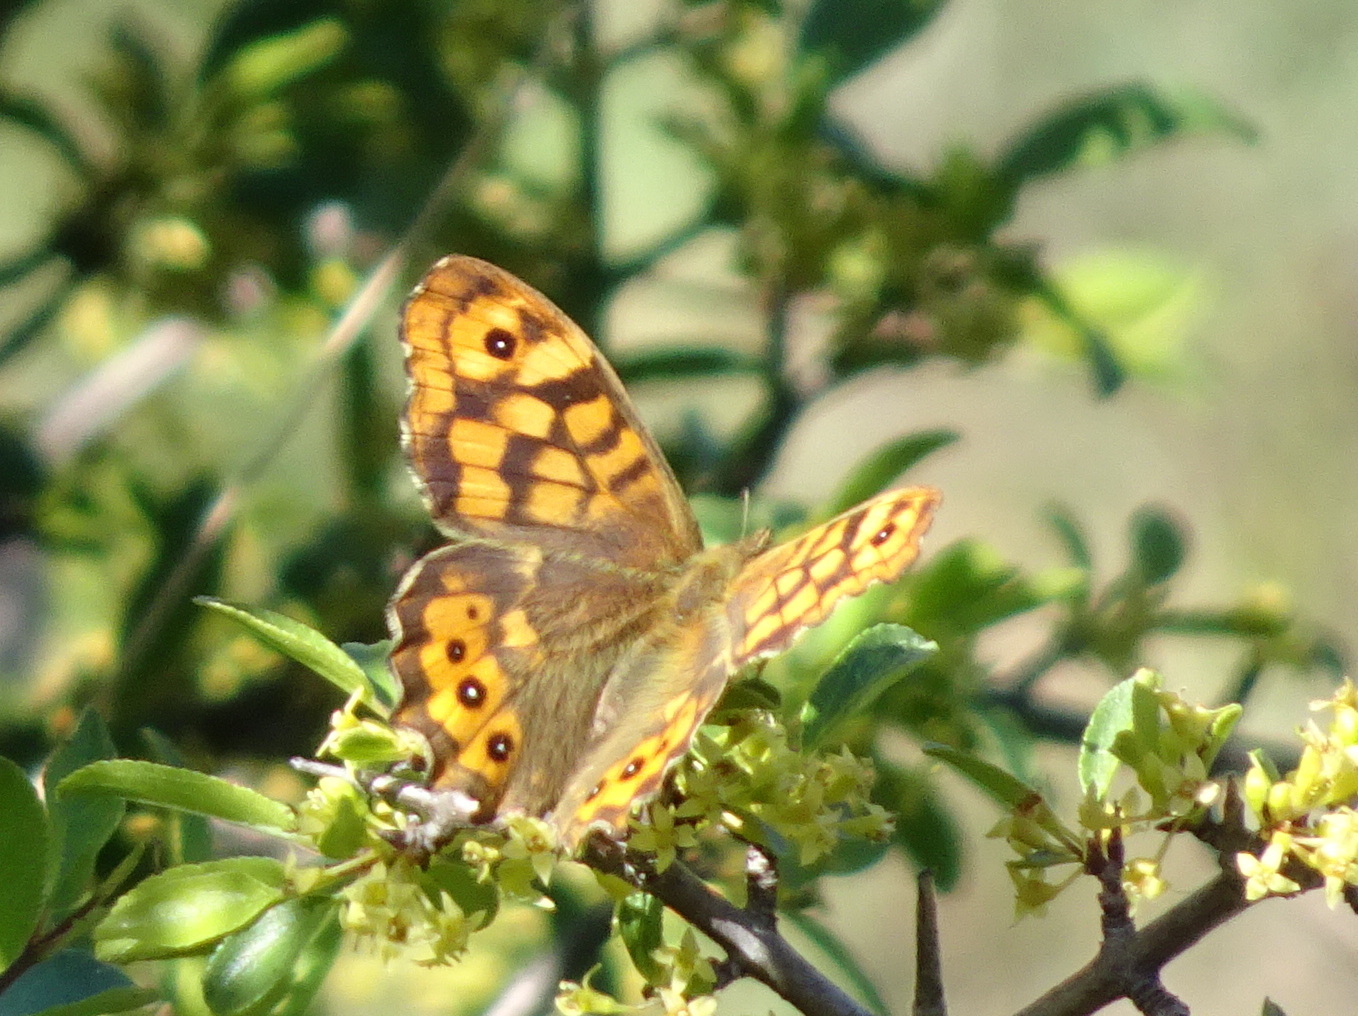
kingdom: Animalia
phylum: Arthropoda
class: Insecta
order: Lepidoptera
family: Nymphalidae
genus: Pararge
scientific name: Pararge aegeria
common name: Speckled wood
